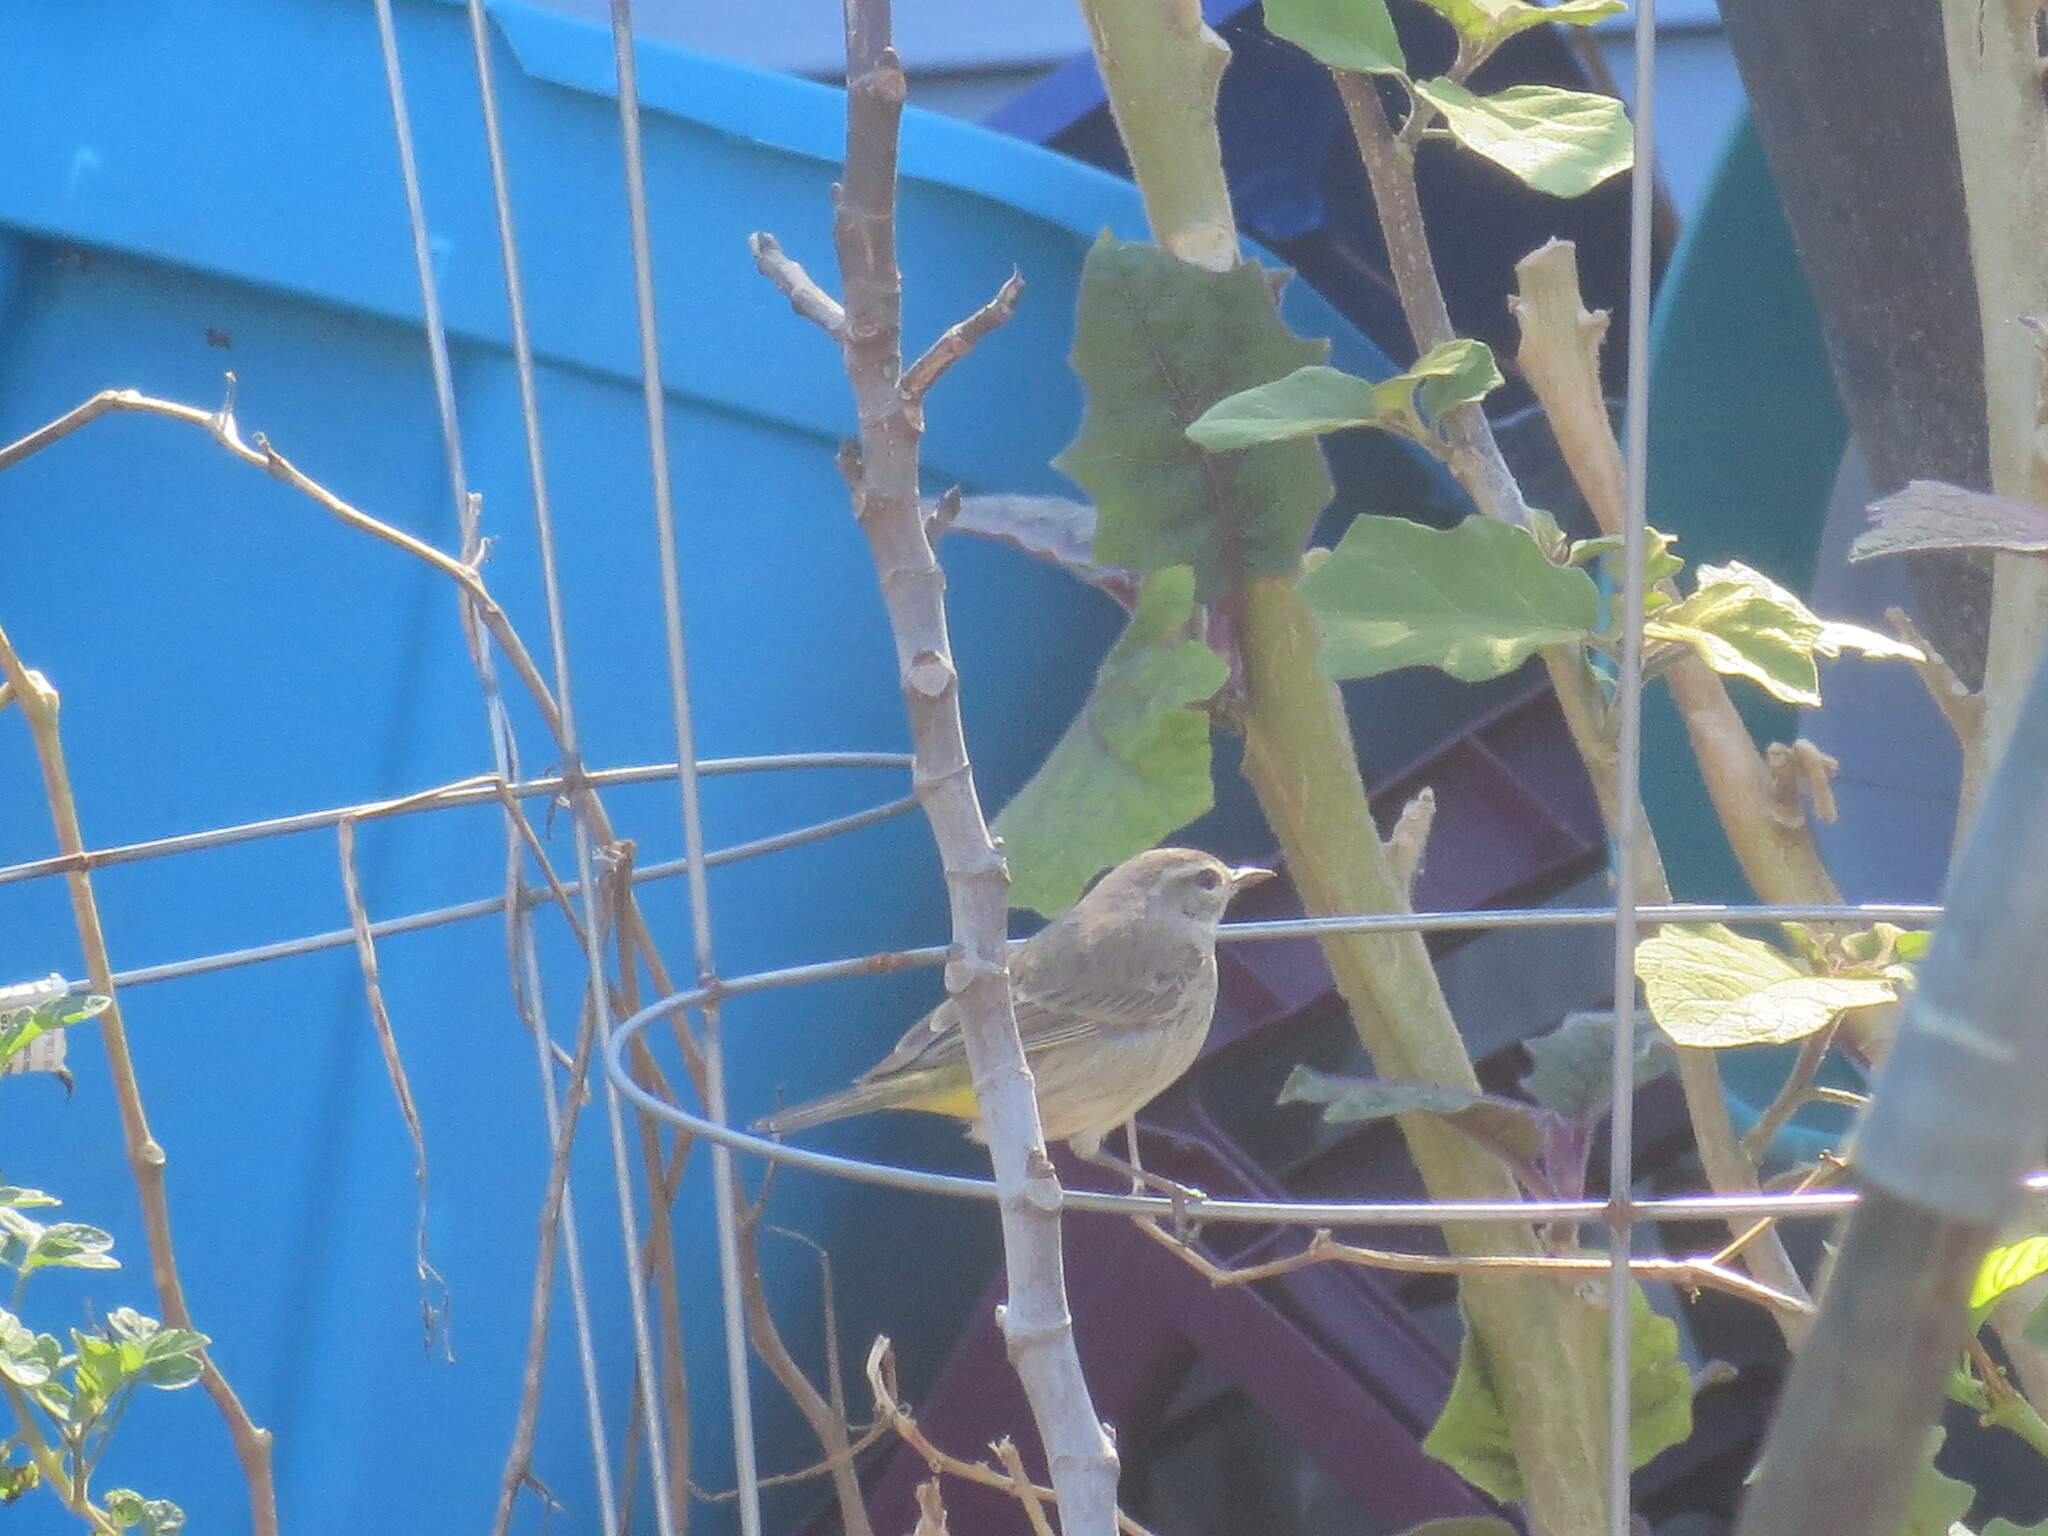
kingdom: Animalia
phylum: Chordata
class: Aves
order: Passeriformes
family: Parulidae
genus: Setophaga
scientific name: Setophaga palmarum
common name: Palm warbler
